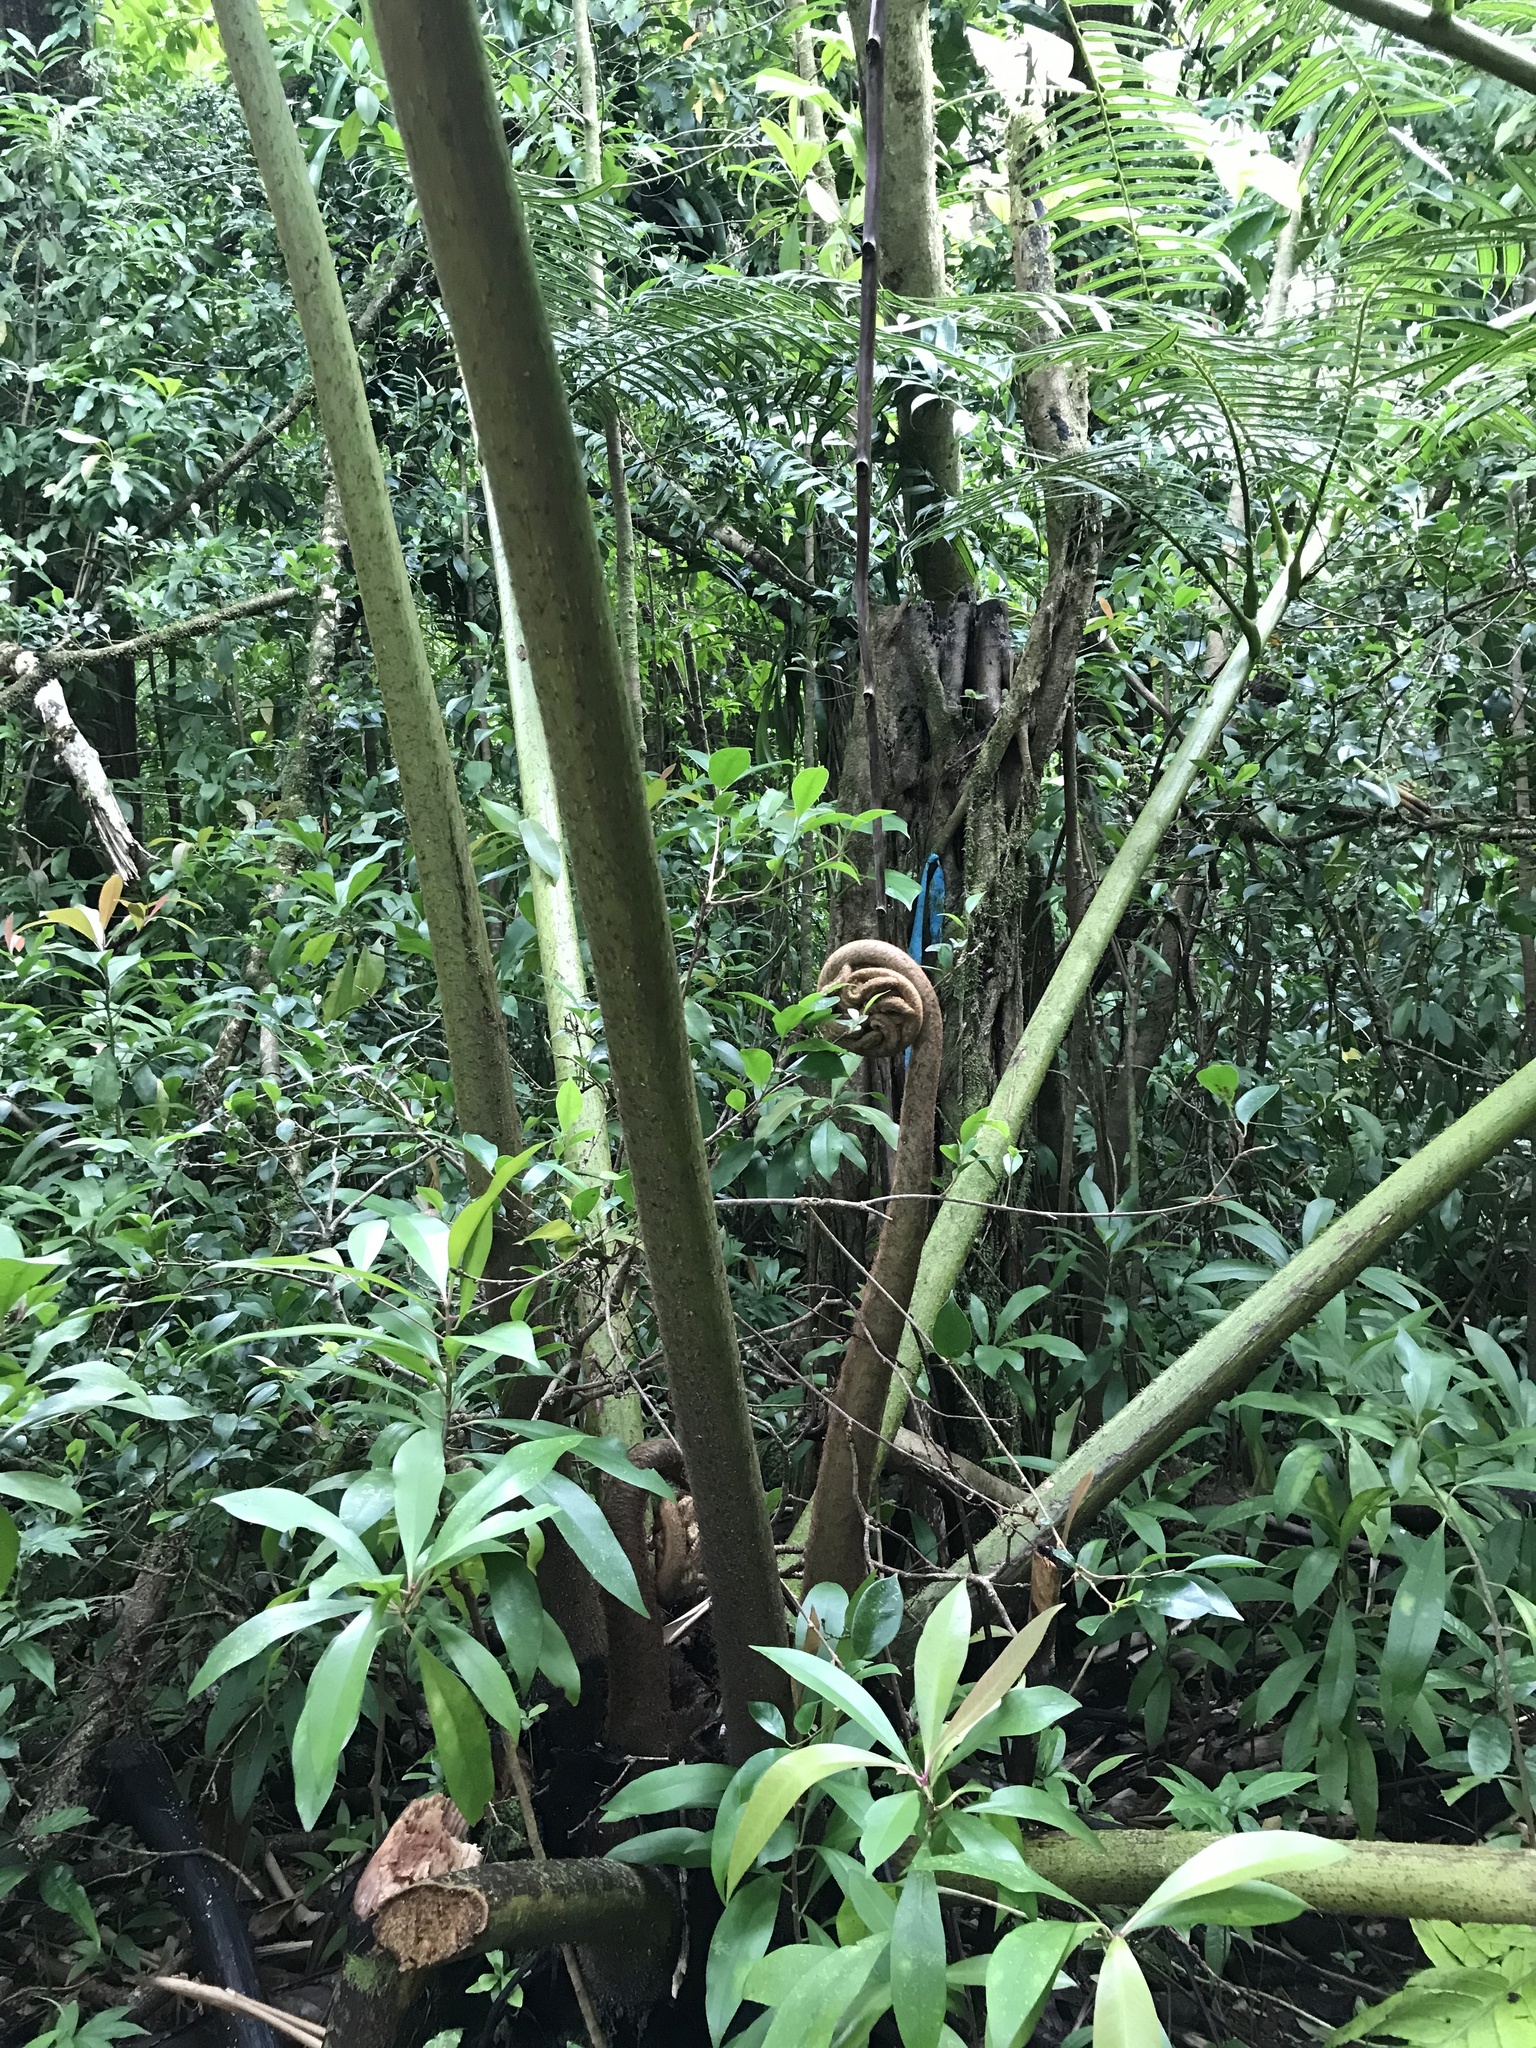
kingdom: Plantae
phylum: Tracheophyta
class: Polypodiopsida
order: Marattiales
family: Marattiaceae
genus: Angiopteris
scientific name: Angiopteris evecta
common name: Mule's-foot fern
